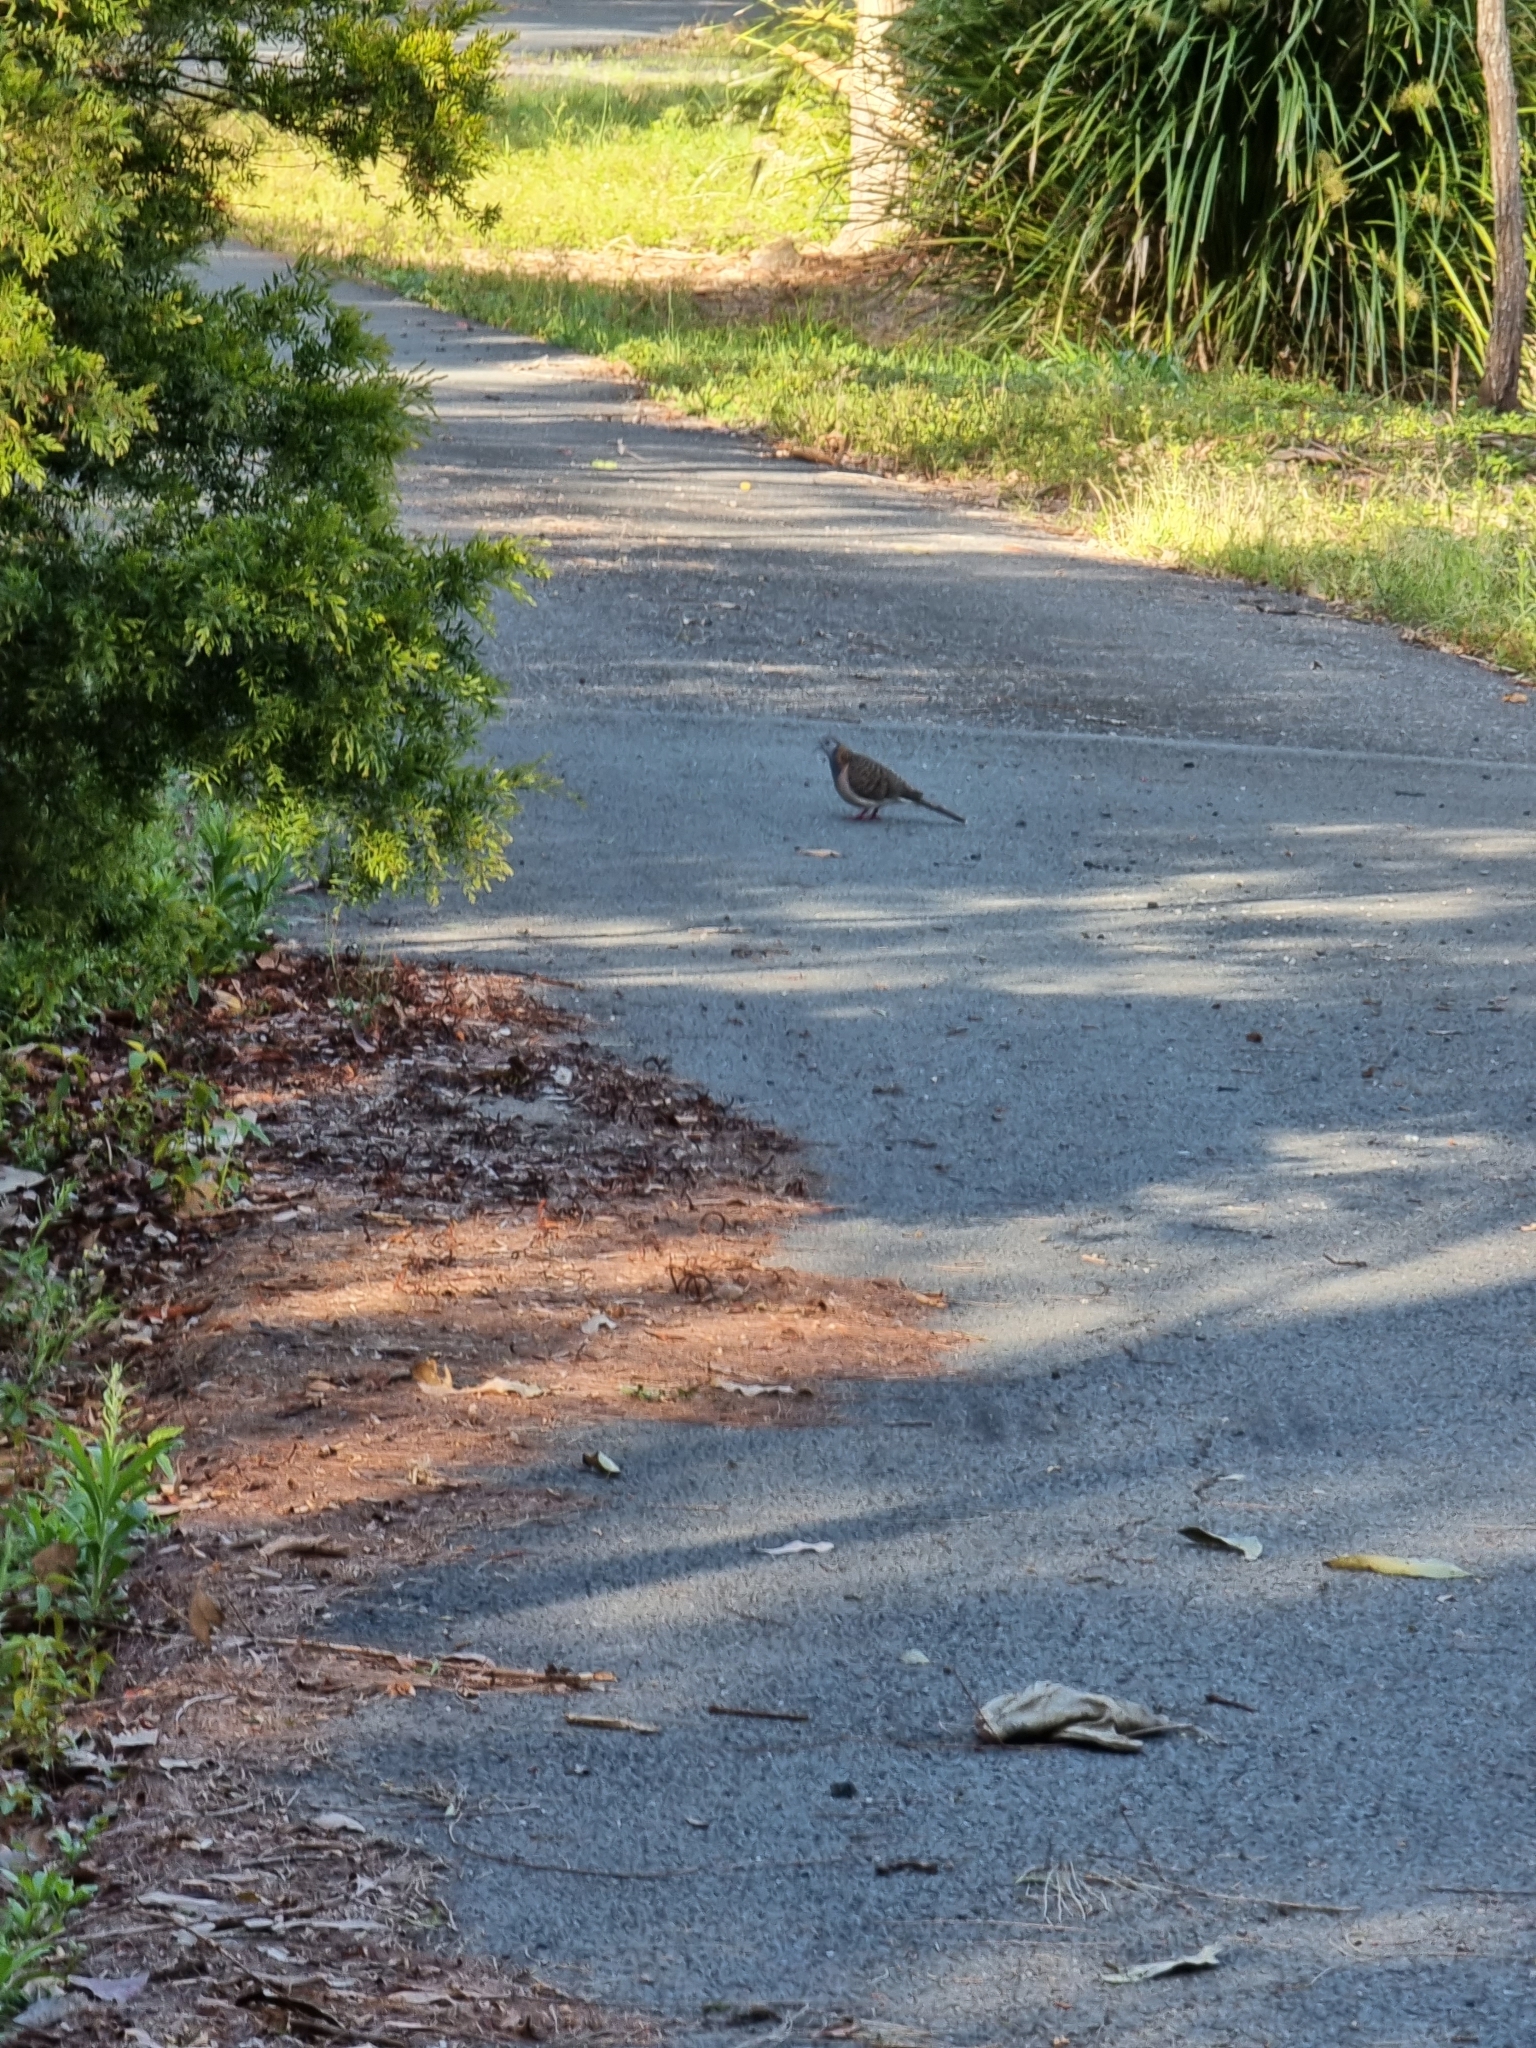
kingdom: Animalia
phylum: Chordata
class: Aves
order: Columbiformes
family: Columbidae
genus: Geopelia
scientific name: Geopelia humeralis
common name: Bar-shouldered dove
